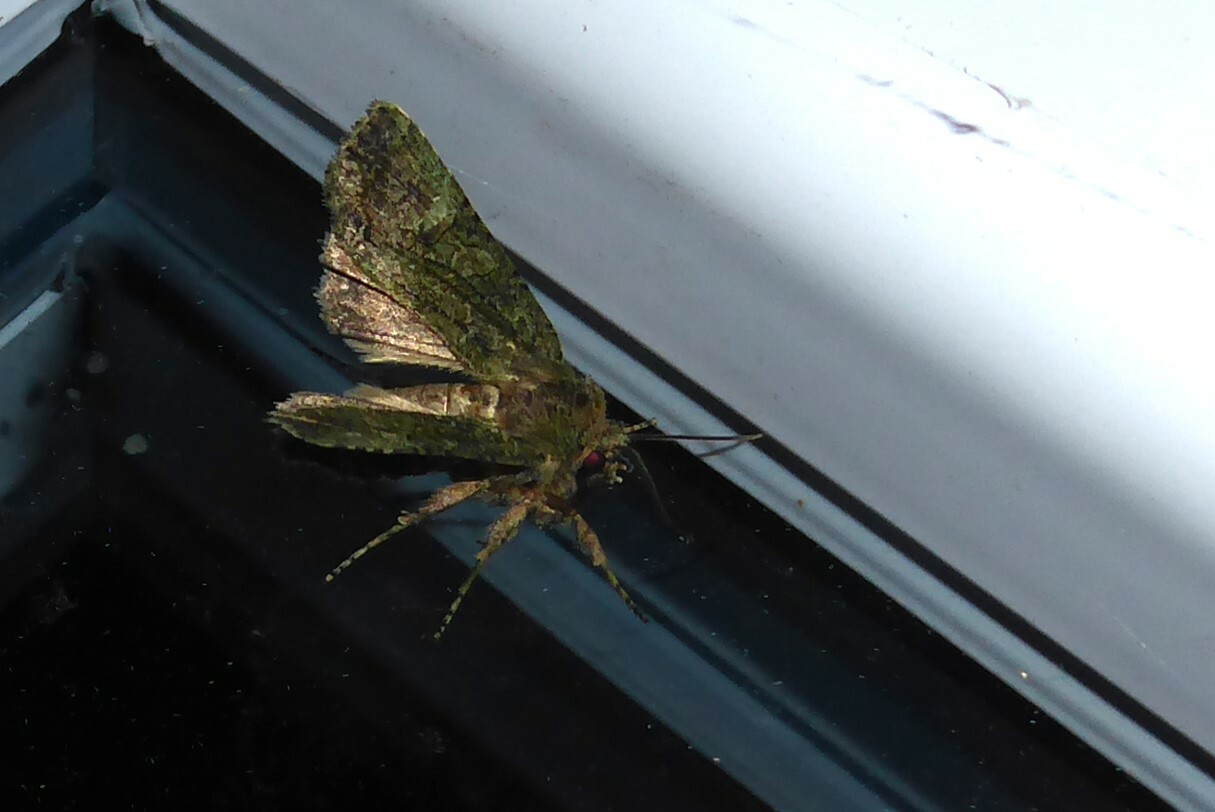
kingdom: Animalia
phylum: Arthropoda
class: Insecta
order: Lepidoptera
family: Noctuidae
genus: Meterana
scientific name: Meterana levis
